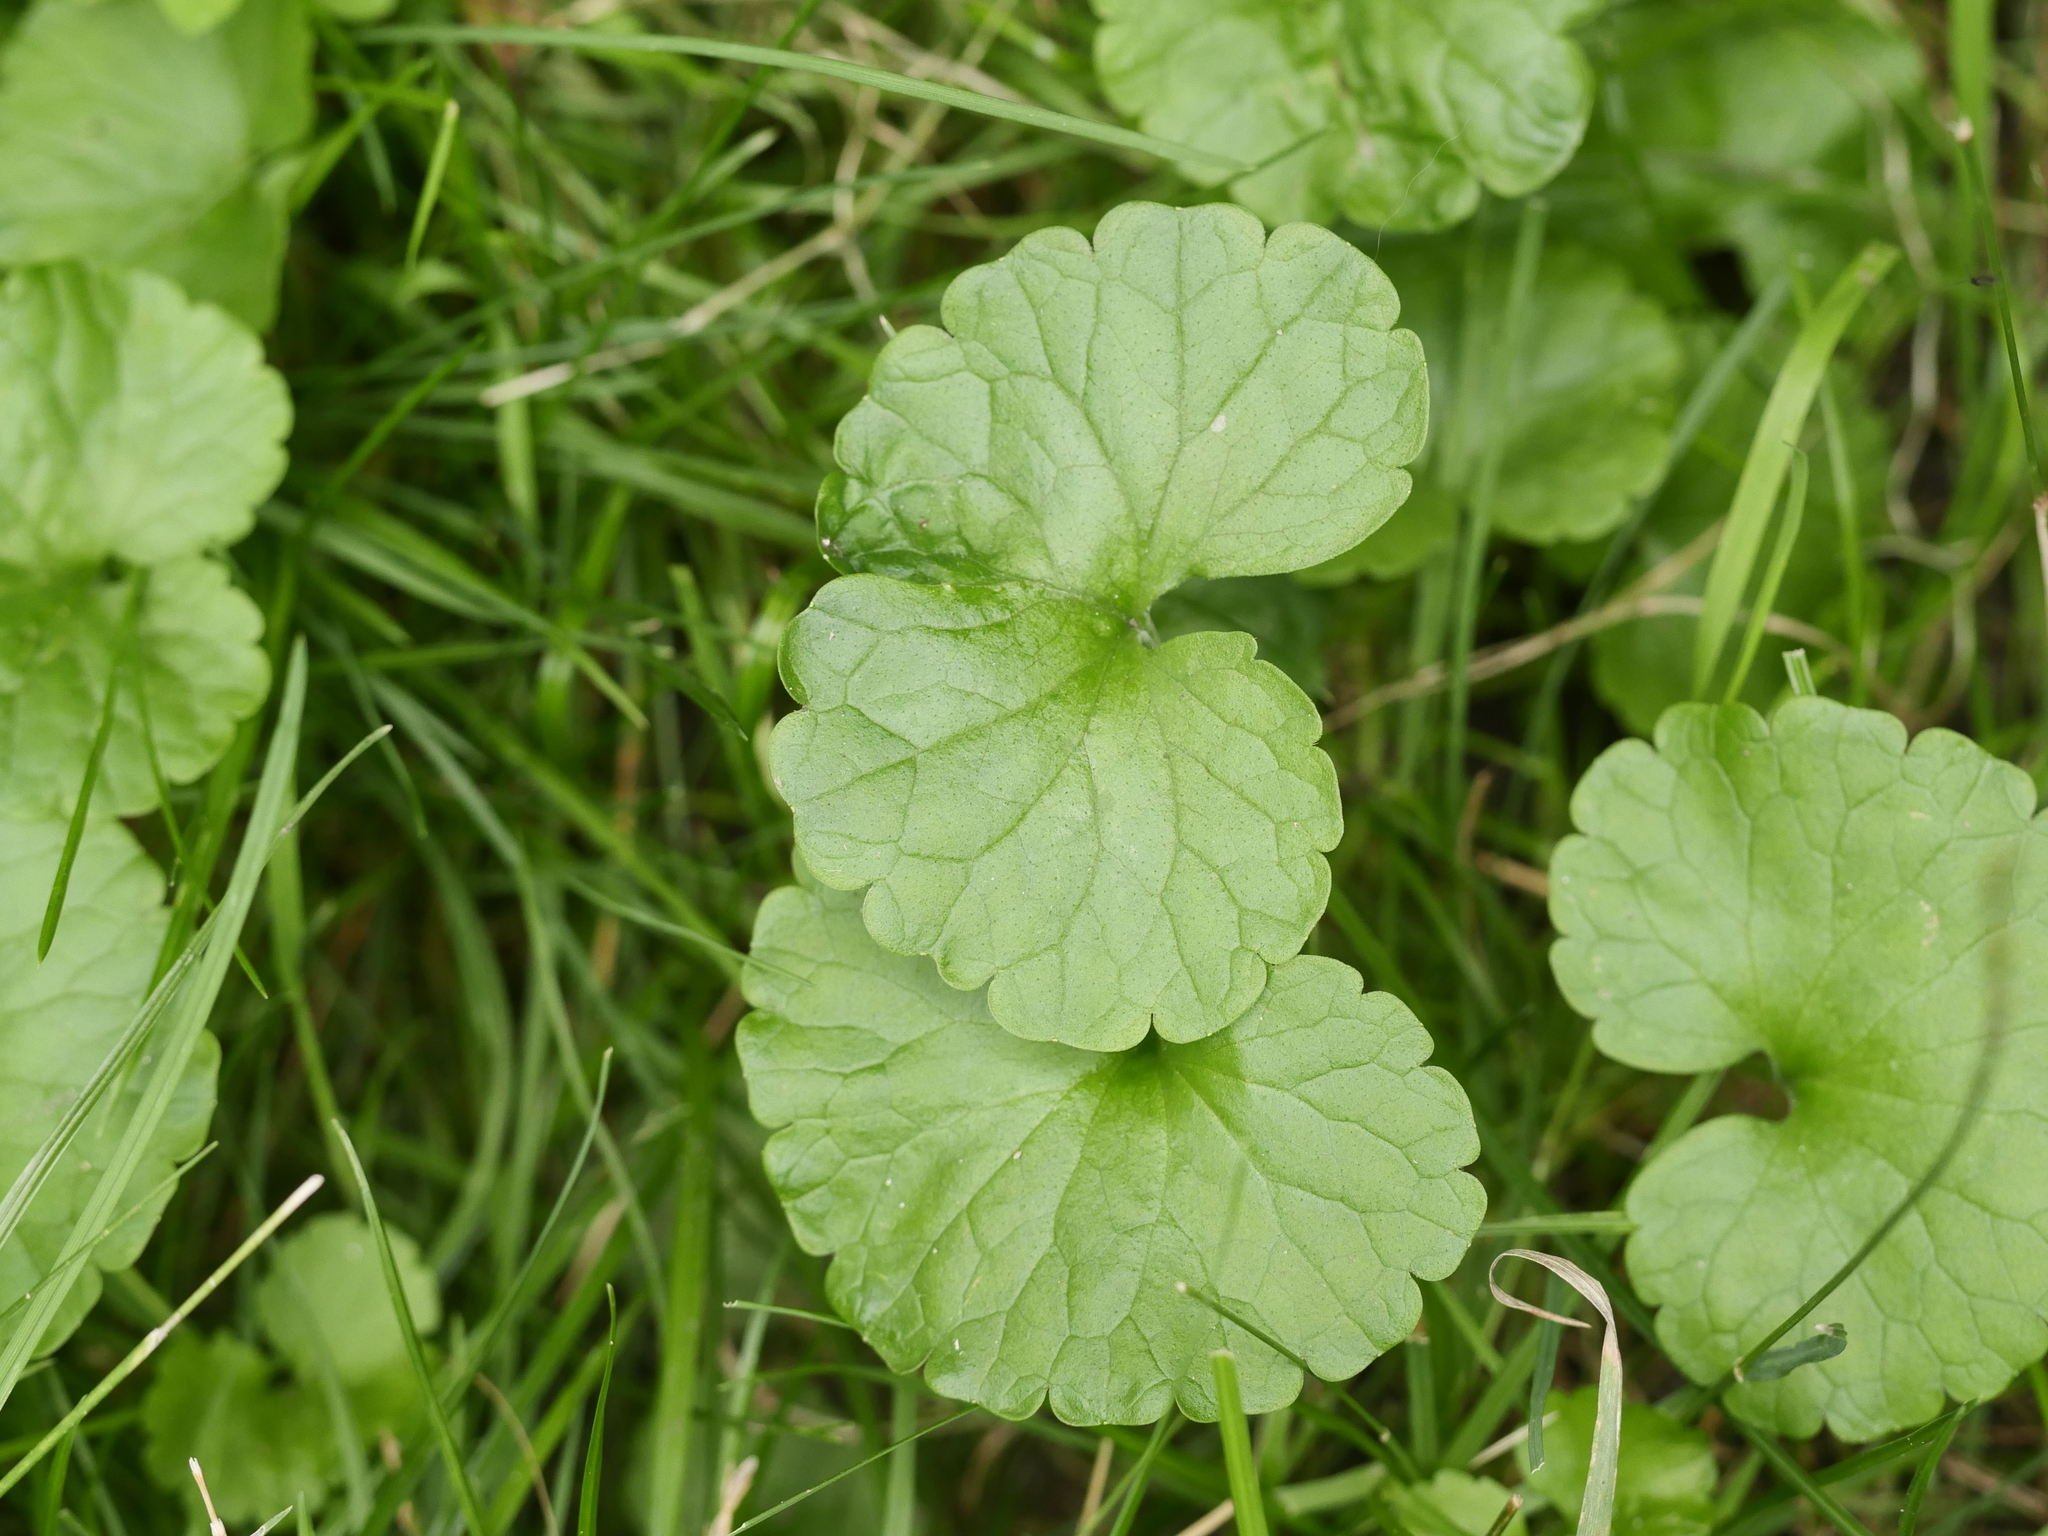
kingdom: Plantae
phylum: Tracheophyta
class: Magnoliopsida
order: Lamiales
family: Lamiaceae
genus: Glechoma
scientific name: Glechoma hederacea
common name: Ground ivy
